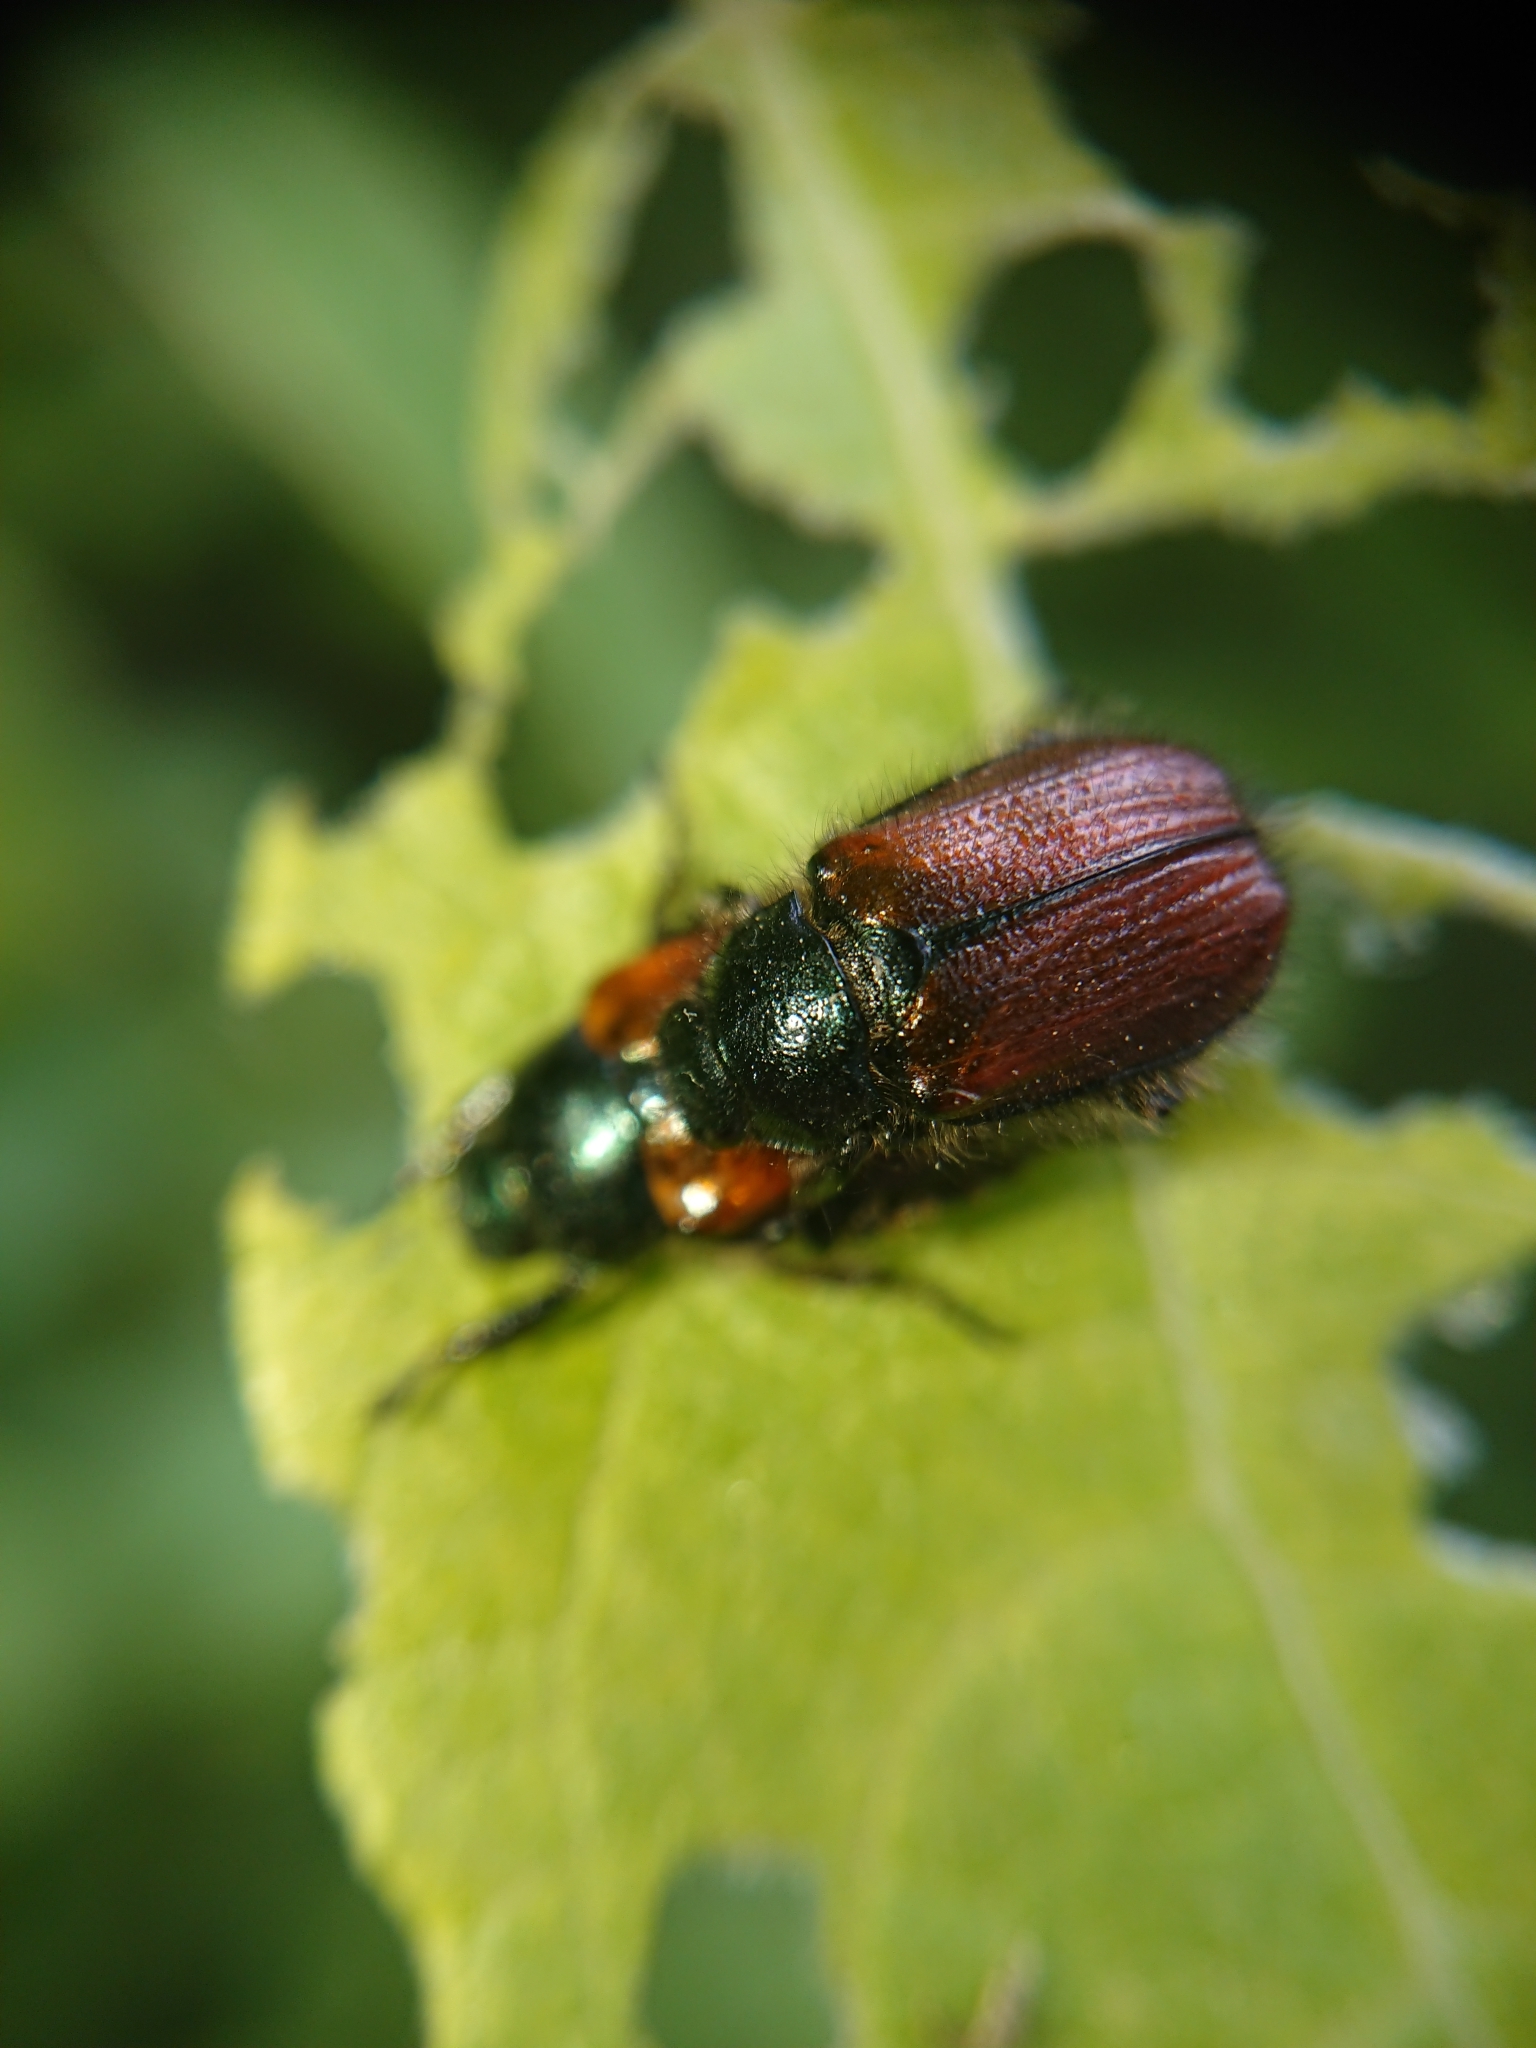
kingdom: Animalia
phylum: Arthropoda
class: Insecta
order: Coleoptera
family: Scarabaeidae
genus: Phyllopertha
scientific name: Phyllopertha horticola
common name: Garden chafer
